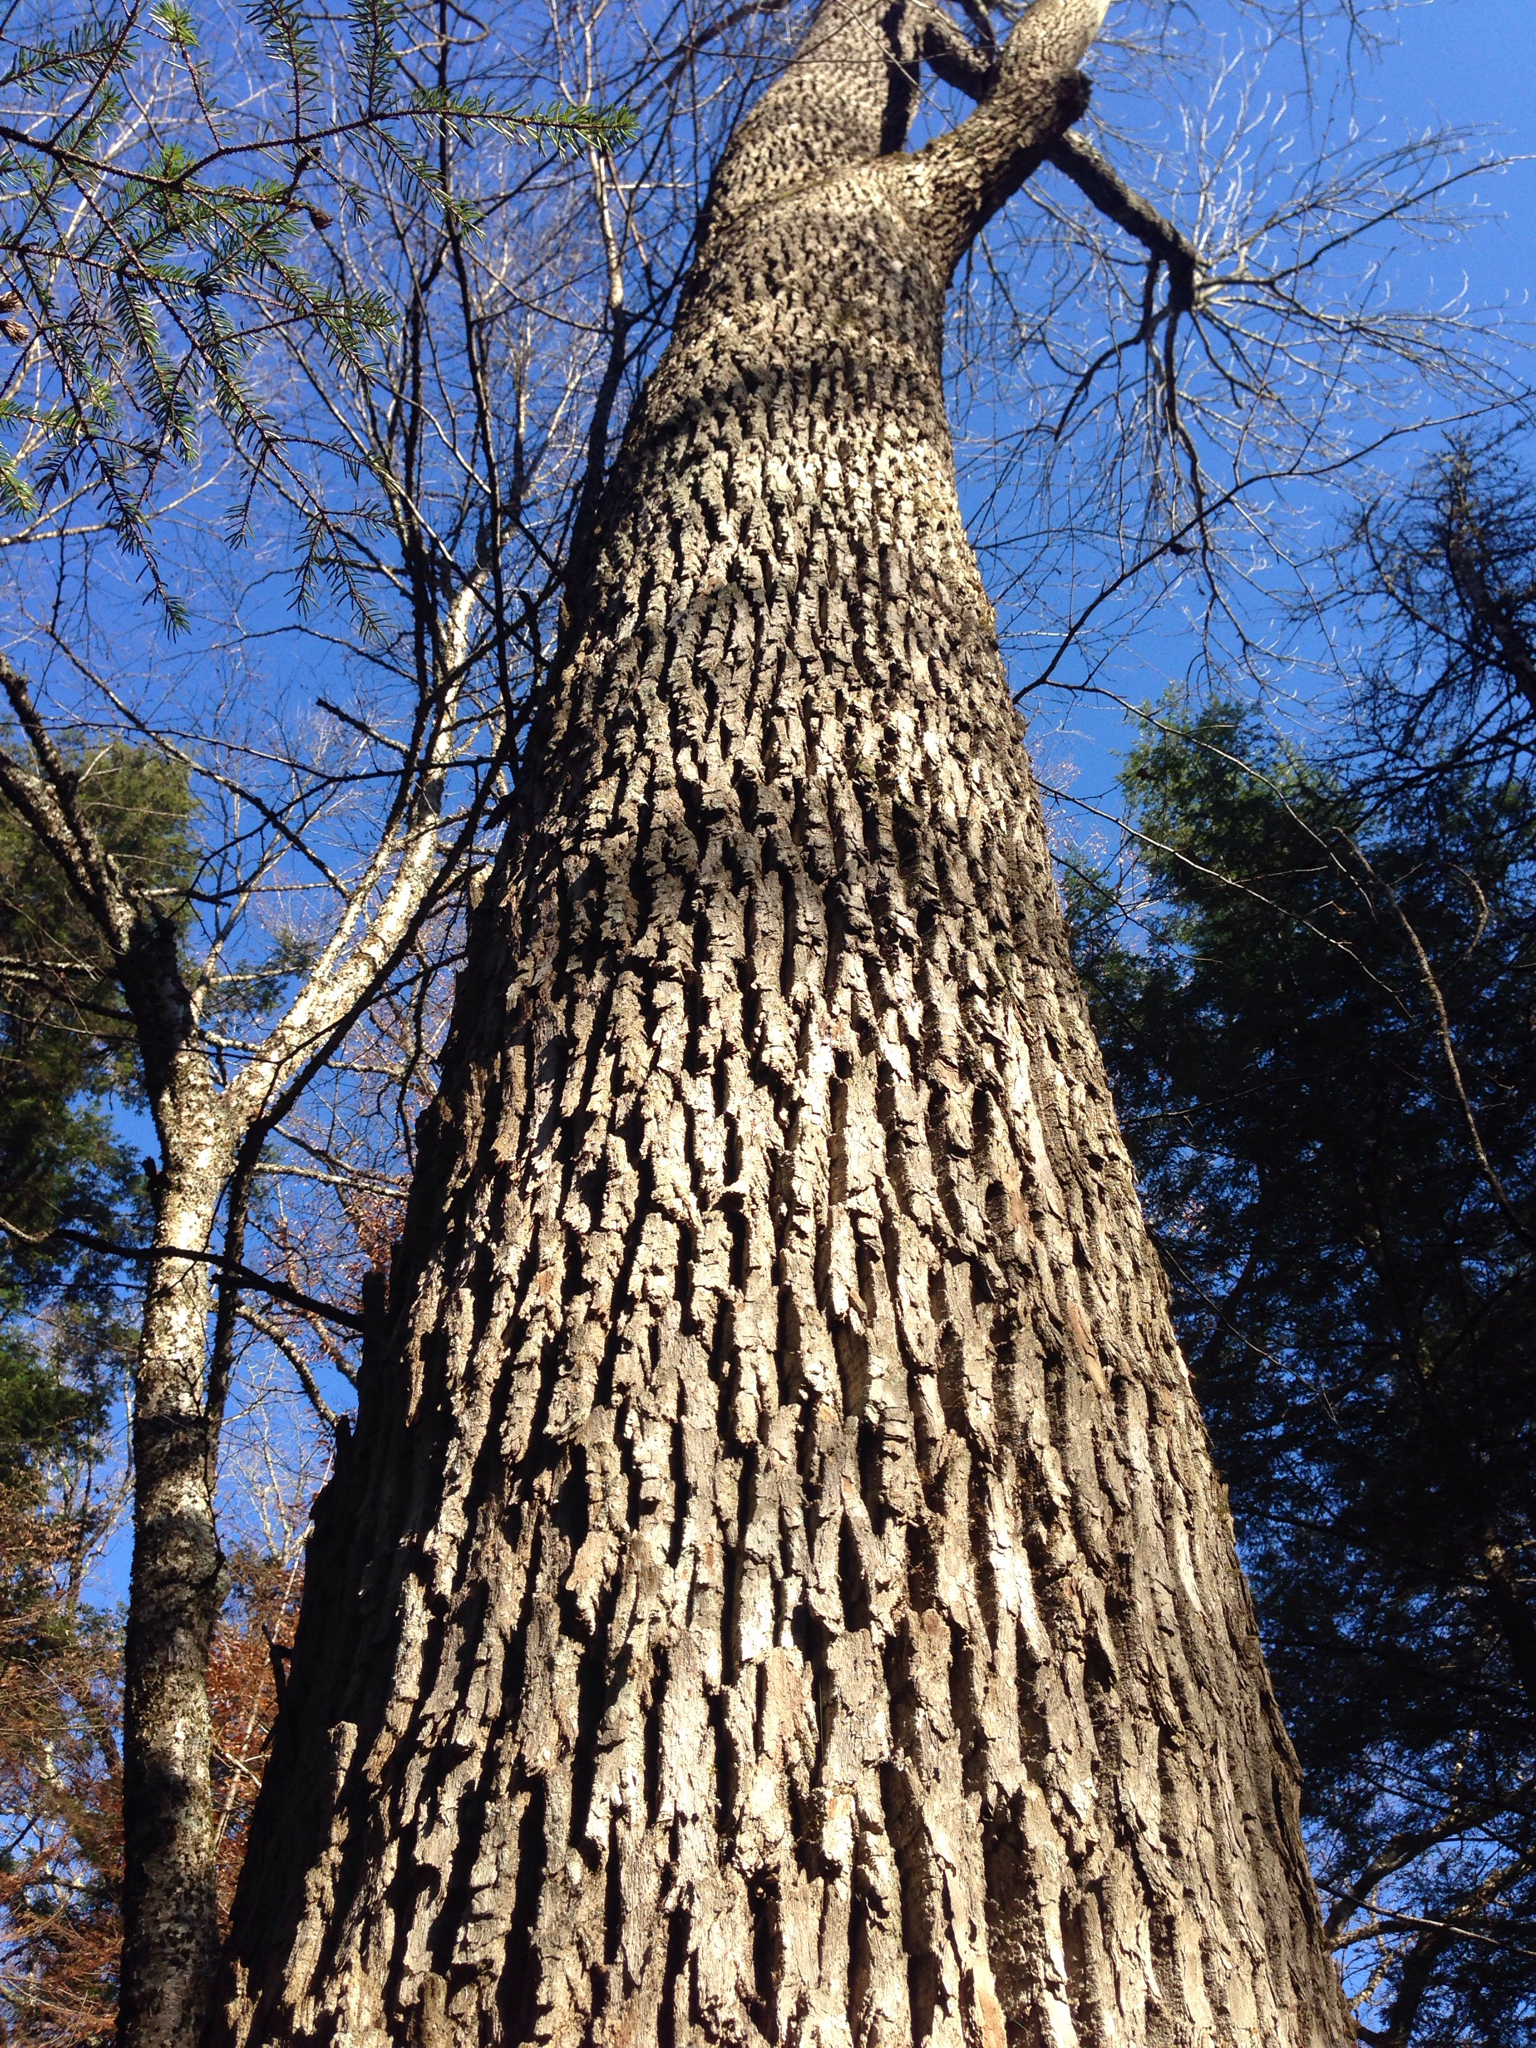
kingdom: Plantae
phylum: Tracheophyta
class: Magnoliopsida
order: Lamiales
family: Oleaceae
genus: Fraxinus
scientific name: Fraxinus americana
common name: White ash
